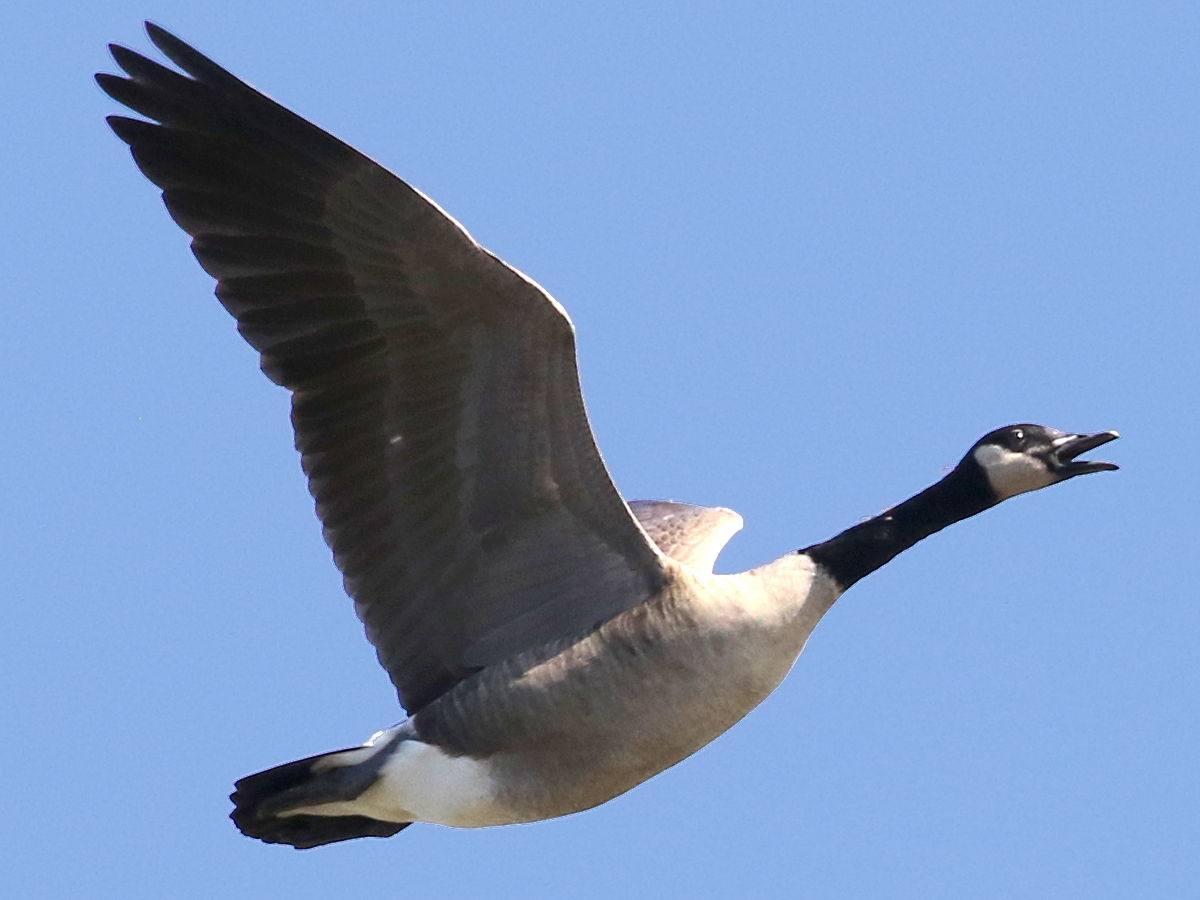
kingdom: Animalia
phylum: Chordata
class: Aves
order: Anseriformes
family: Anatidae
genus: Branta
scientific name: Branta canadensis
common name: Canada goose
